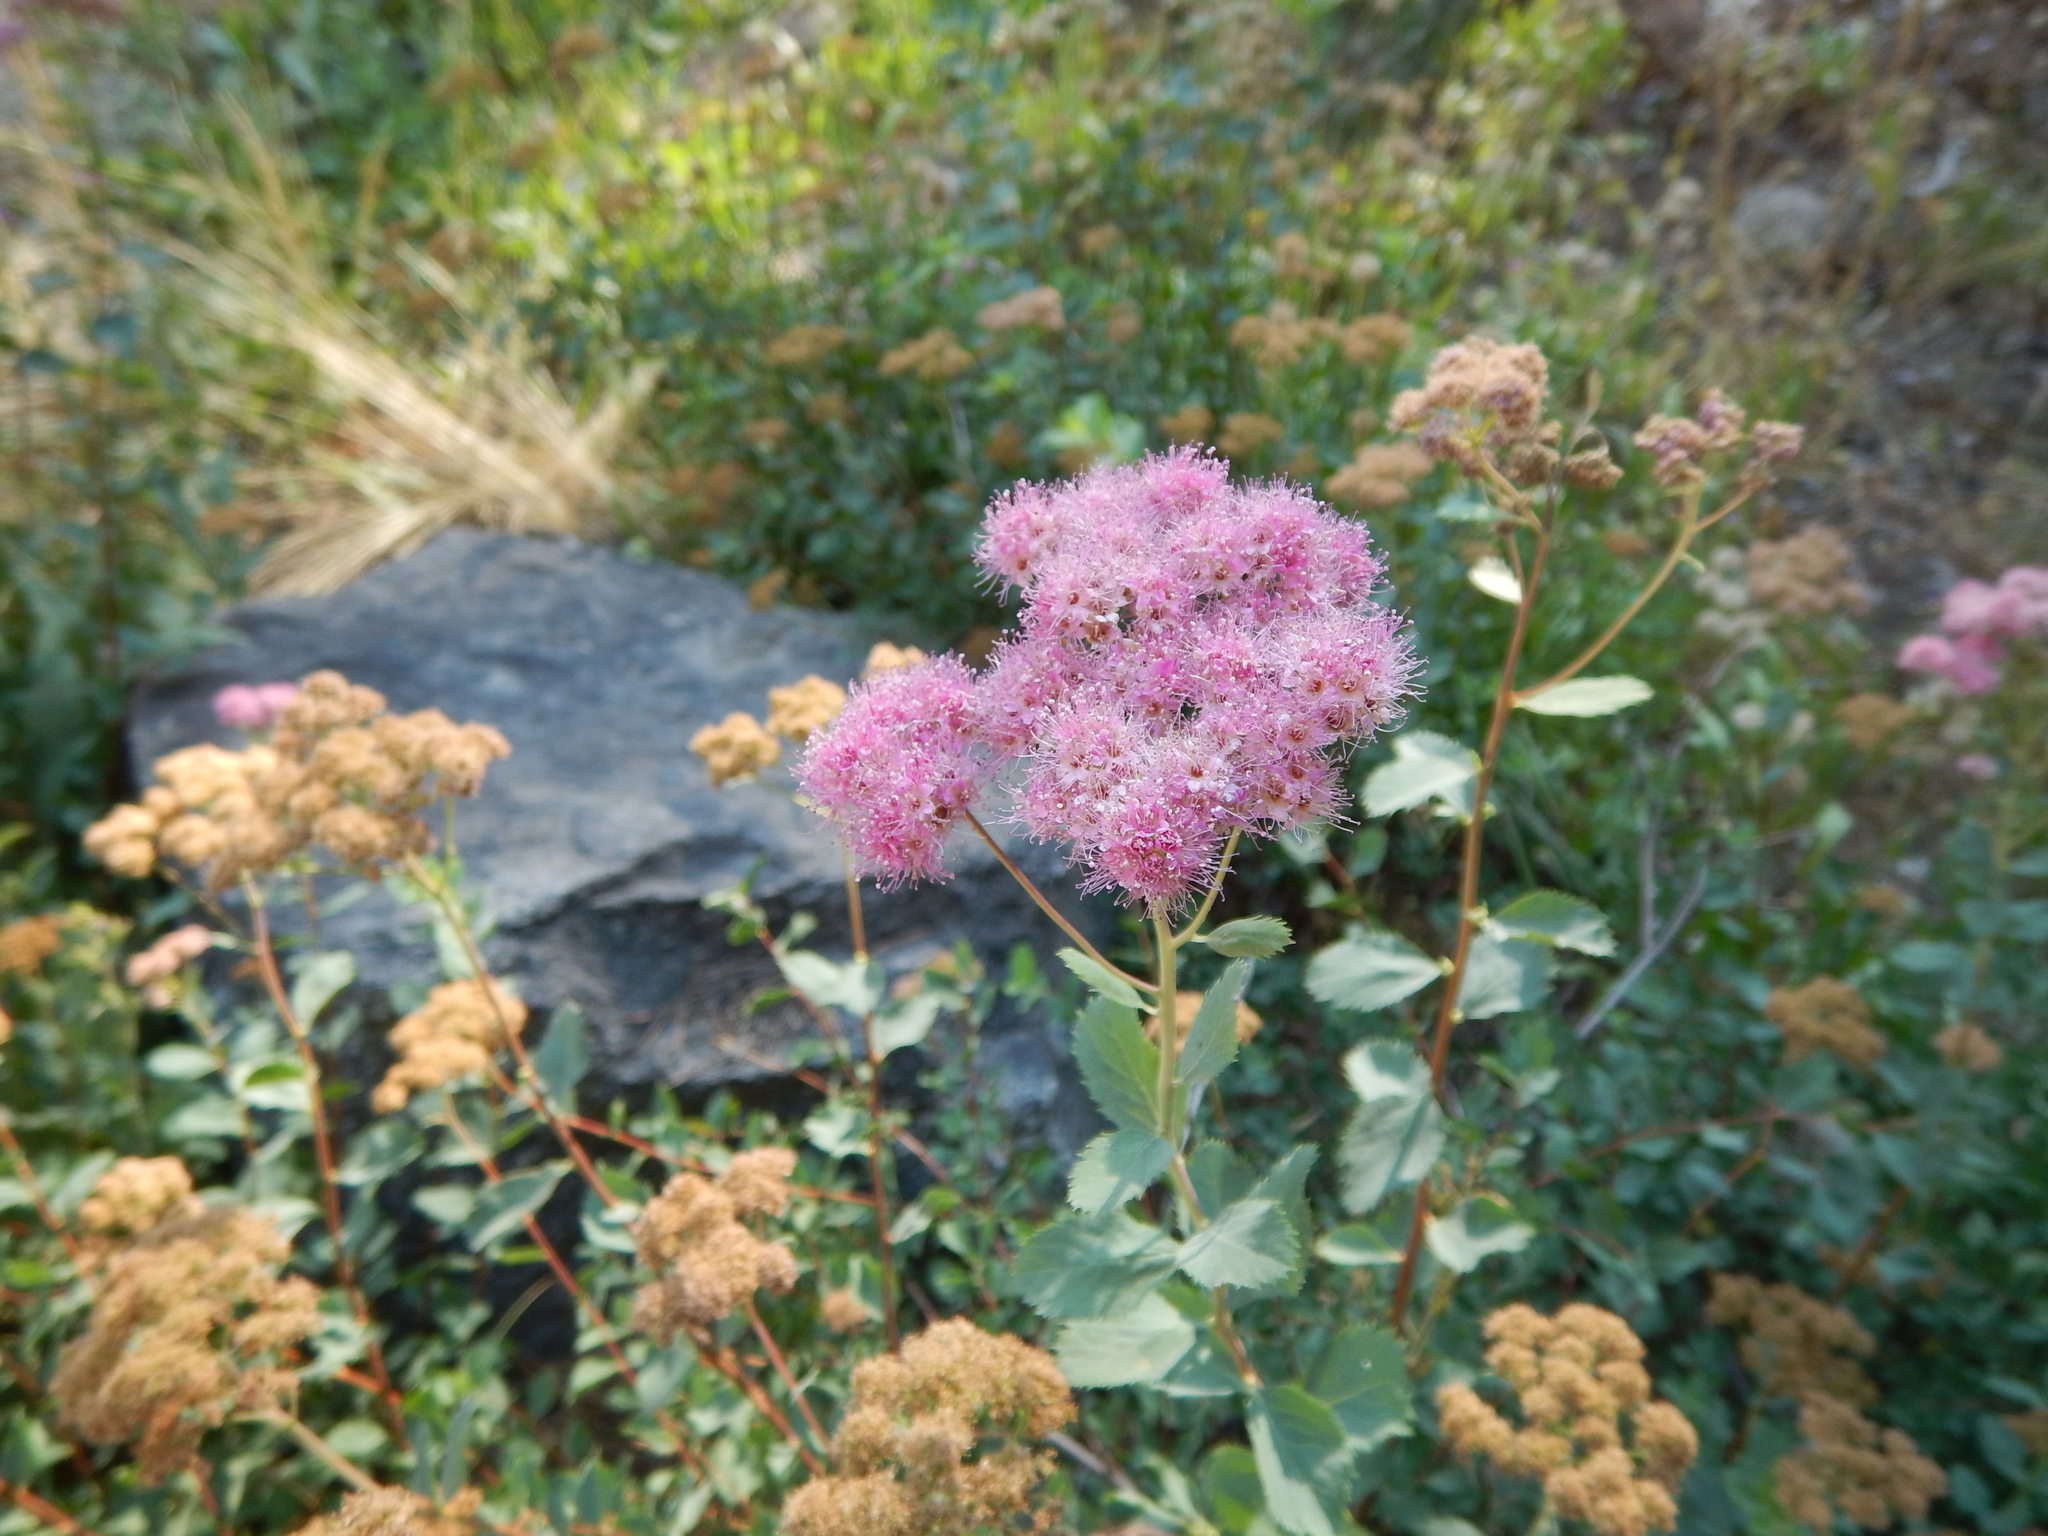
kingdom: Plantae
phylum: Tracheophyta
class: Magnoliopsida
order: Rosales
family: Rosaceae
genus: Spiraea
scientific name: Spiraea splendens
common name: Subalpine meadowsweet
